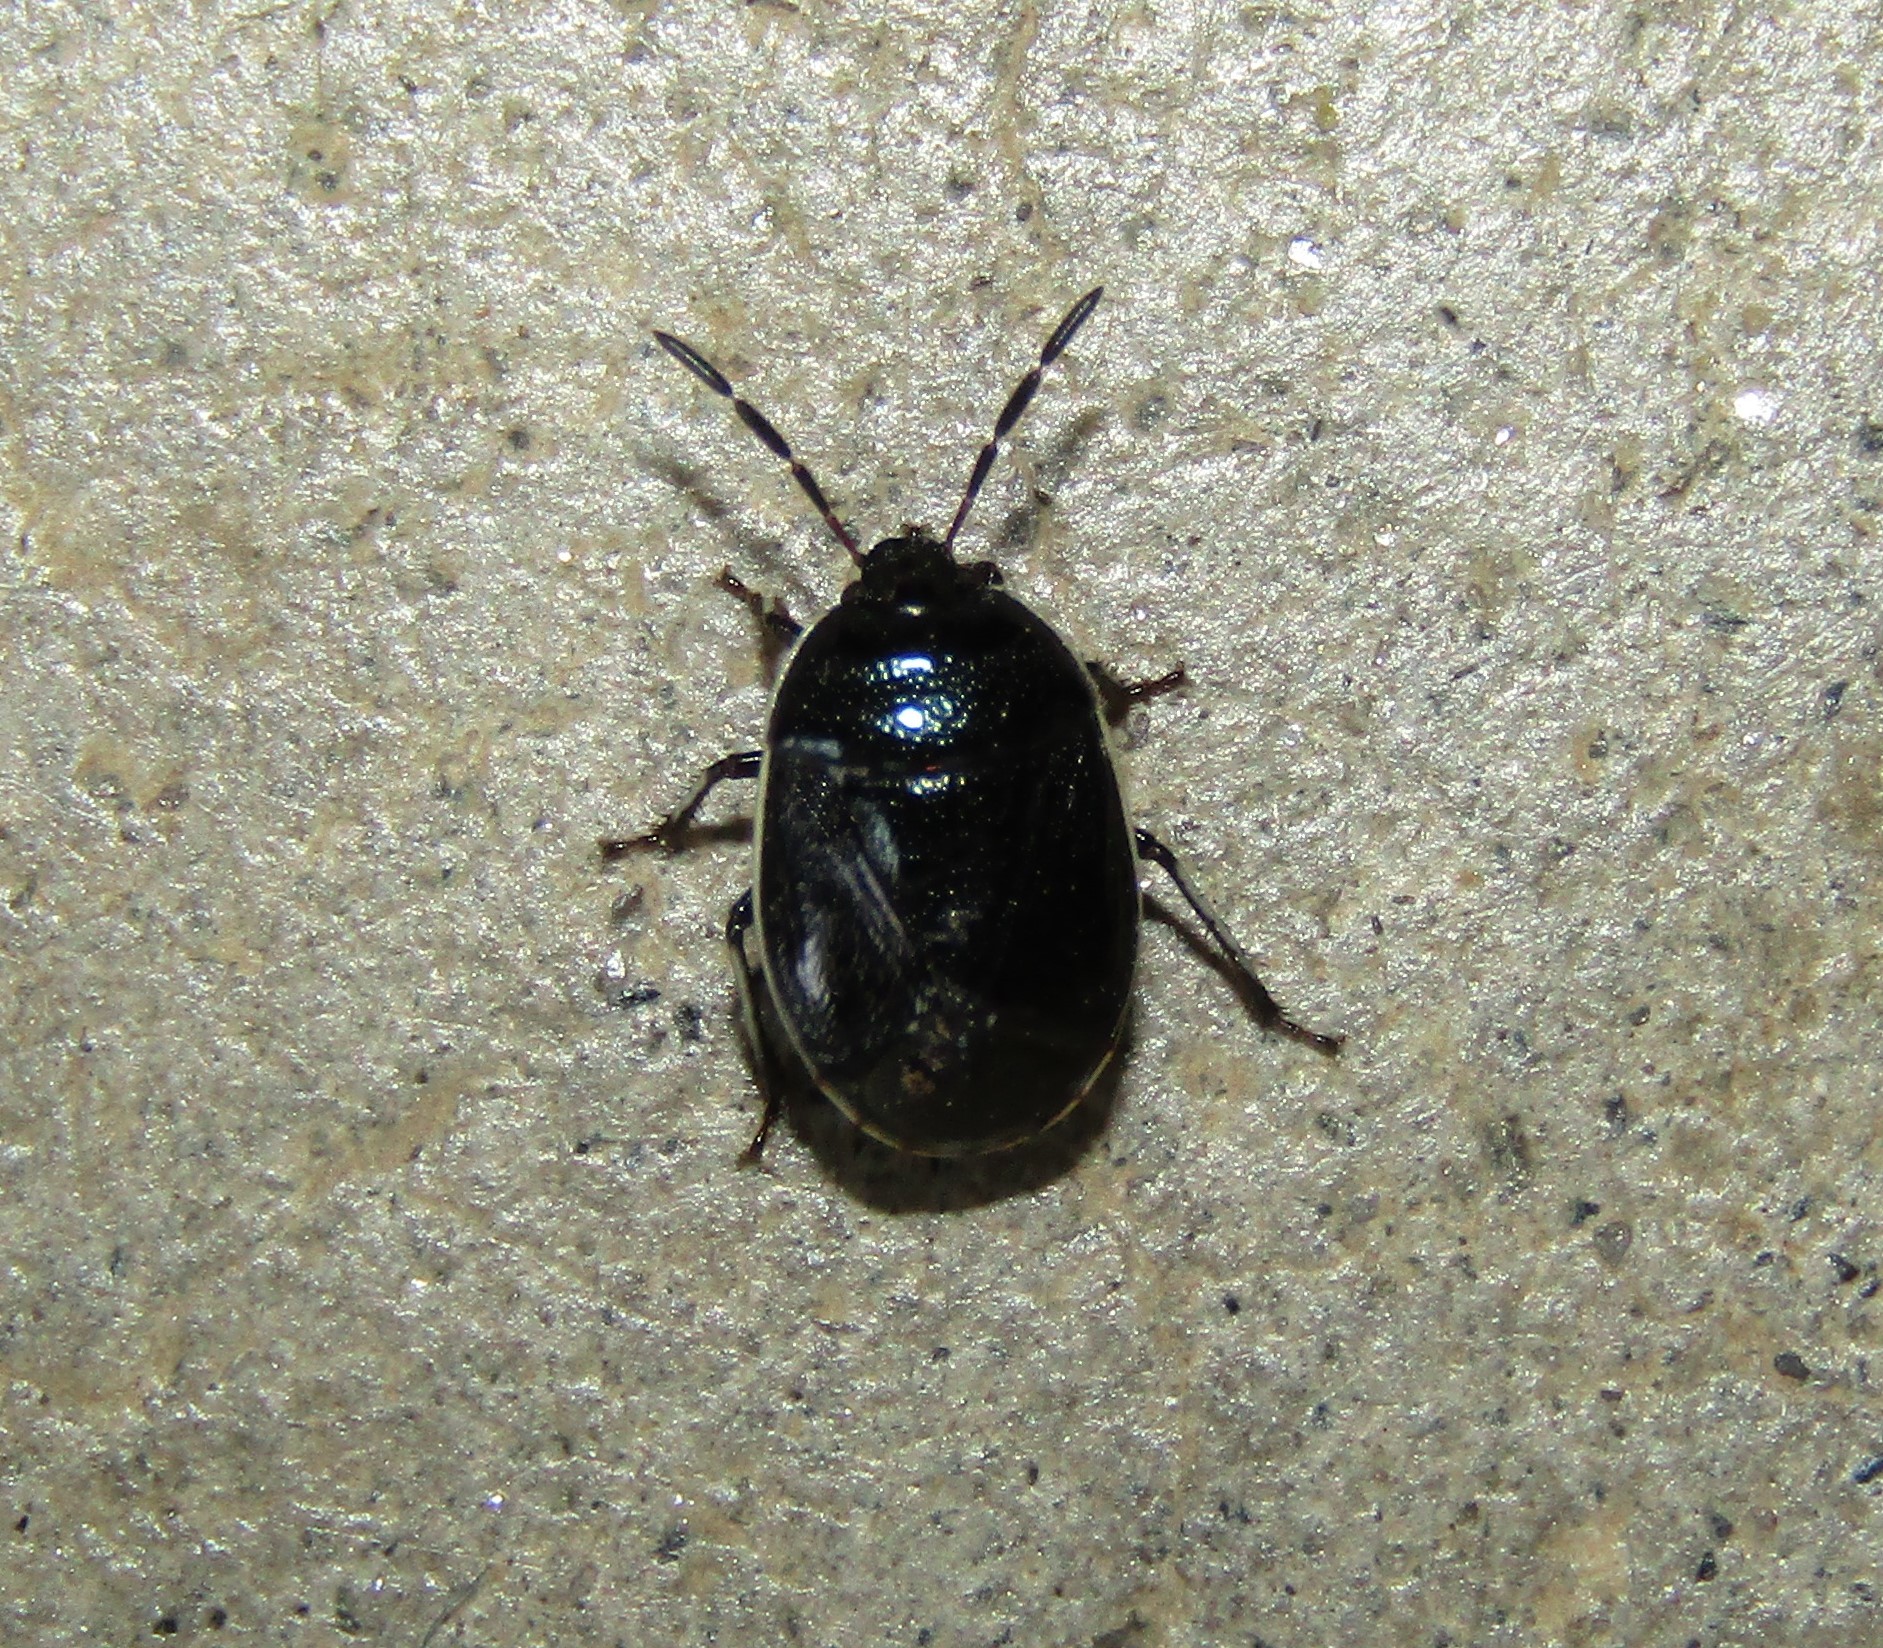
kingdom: Animalia
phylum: Arthropoda
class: Insecta
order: Hemiptera
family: Cydnidae
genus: Sehirus
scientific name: Sehirus cinctus
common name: White-margined burrower bug
